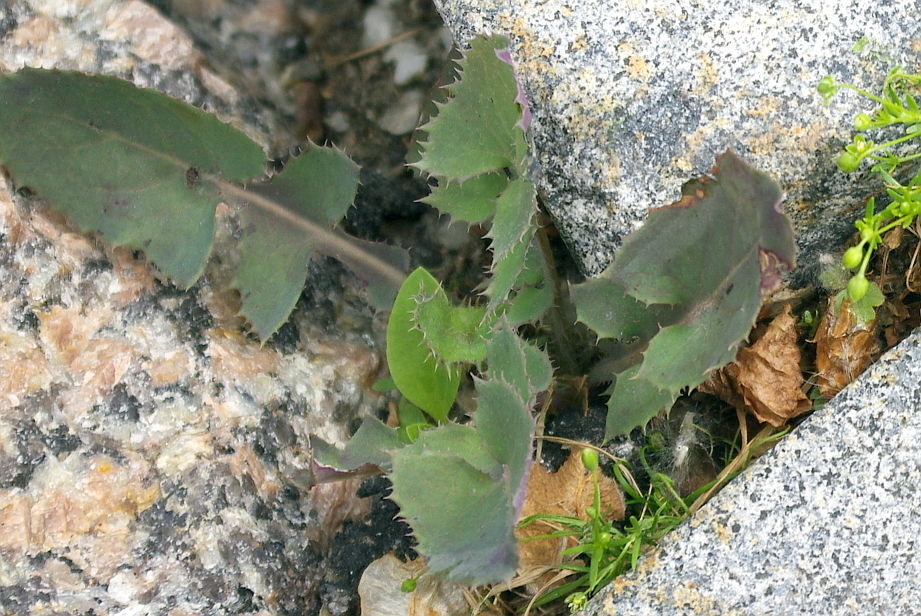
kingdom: Plantae
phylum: Tracheophyta
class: Magnoliopsida
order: Asterales
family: Asteraceae
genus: Sonchus
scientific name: Sonchus oleraceus
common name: Common sowthistle
